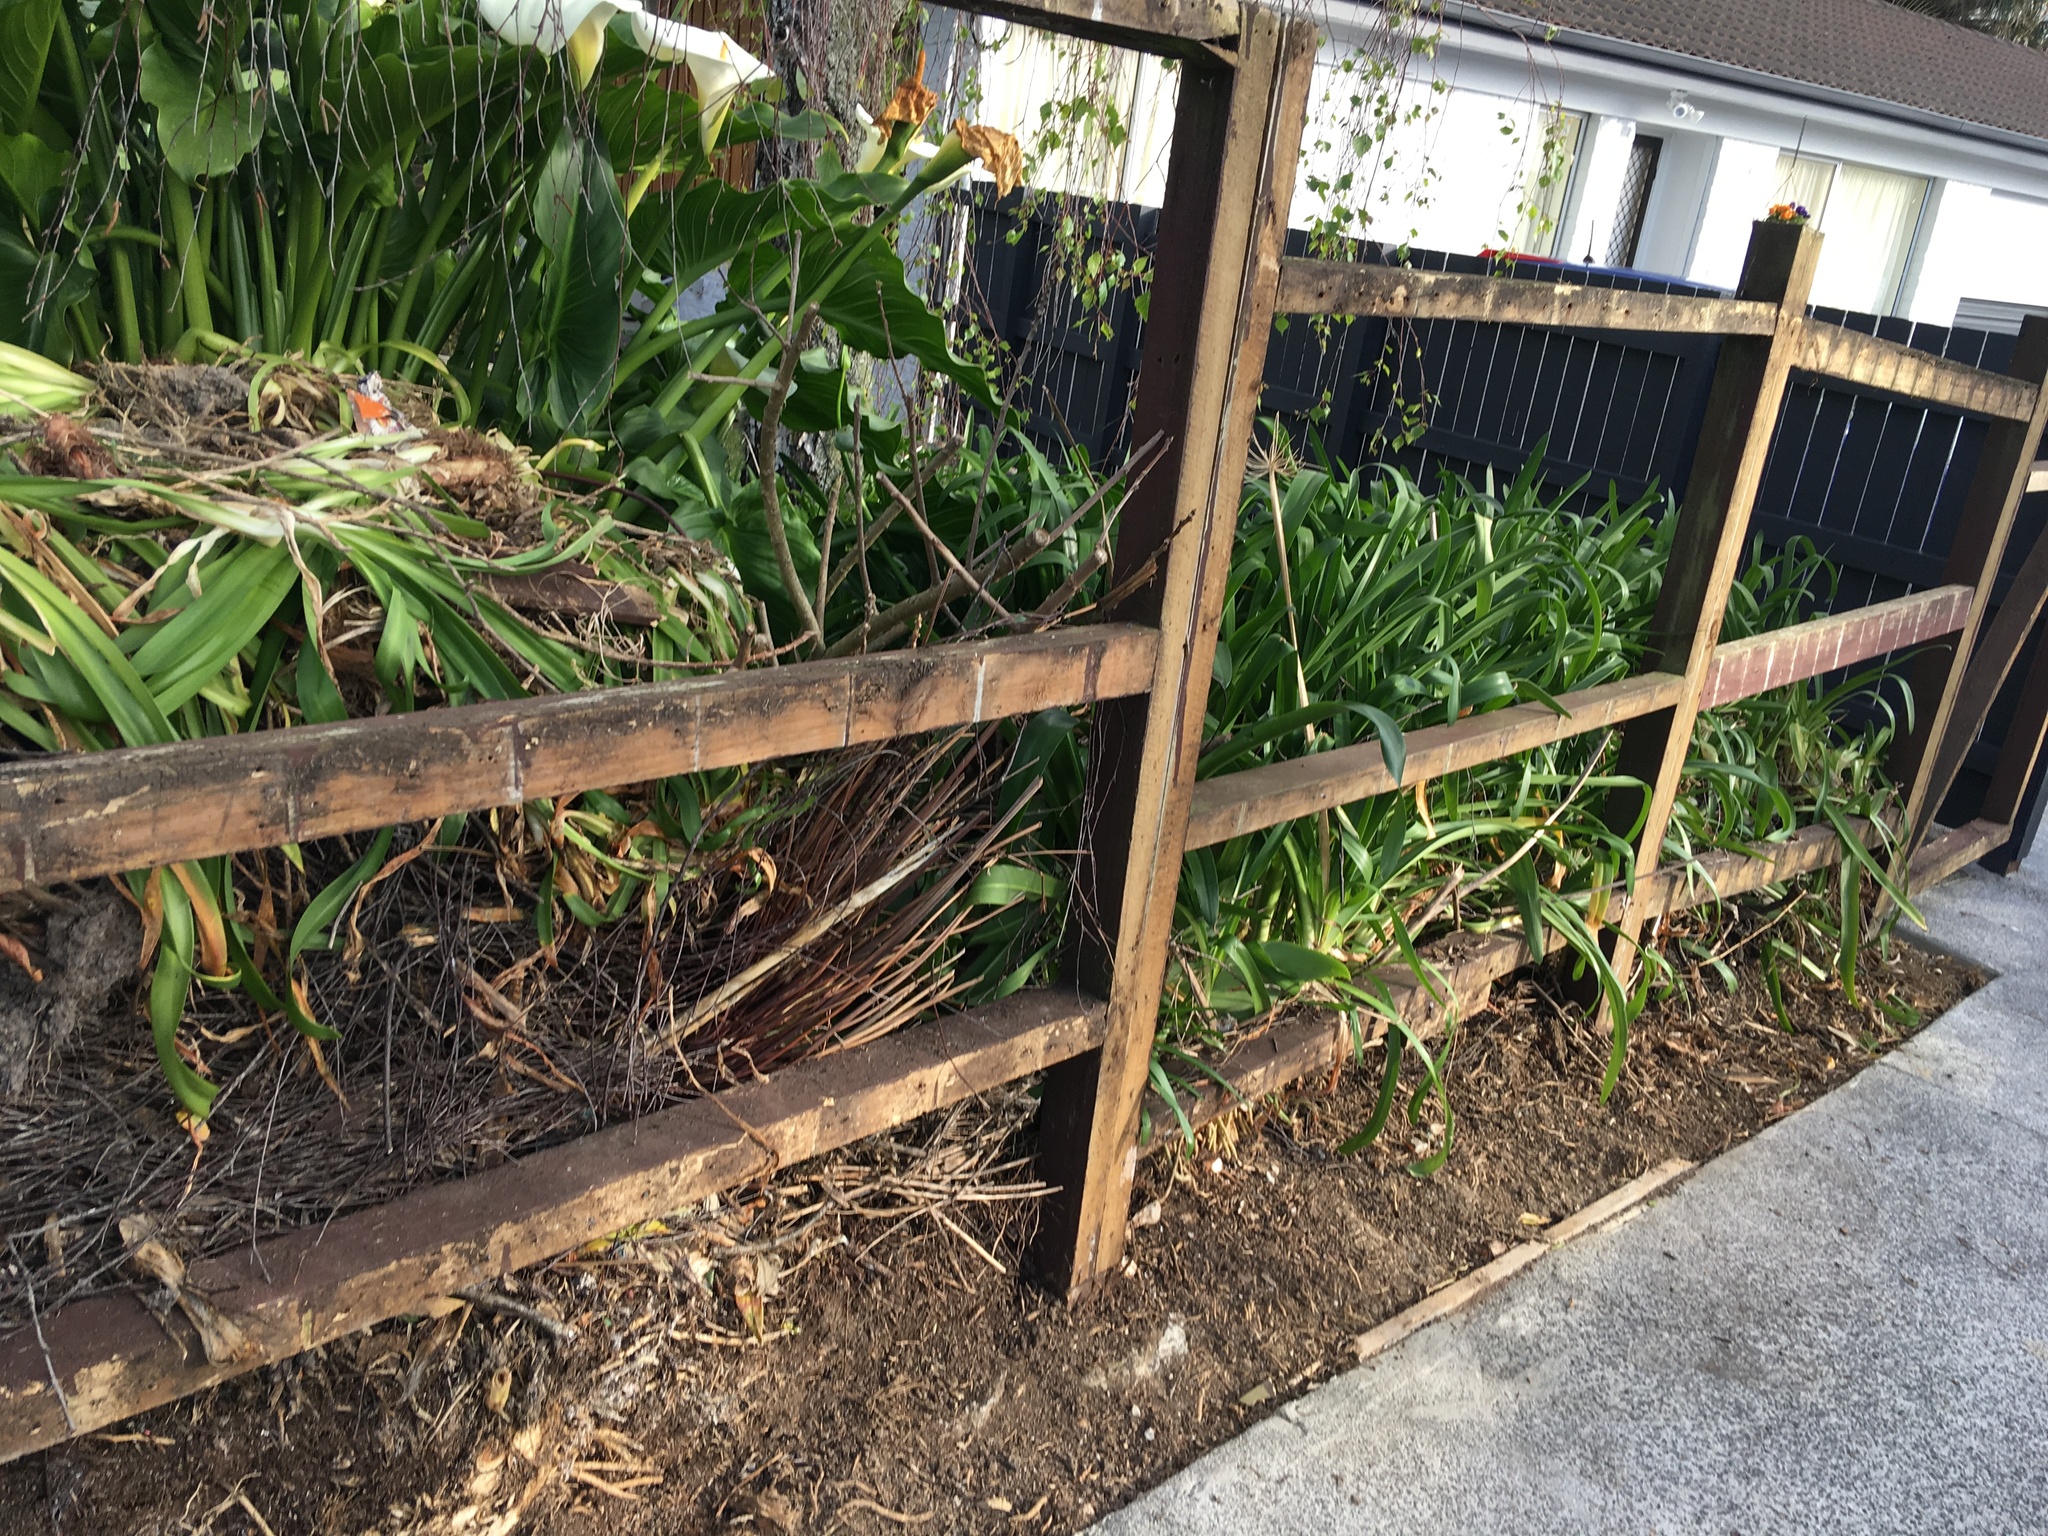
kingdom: Plantae
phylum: Tracheophyta
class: Liliopsida
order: Asparagales
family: Amaryllidaceae
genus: Agapanthus
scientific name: Agapanthus praecox
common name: African-lily
